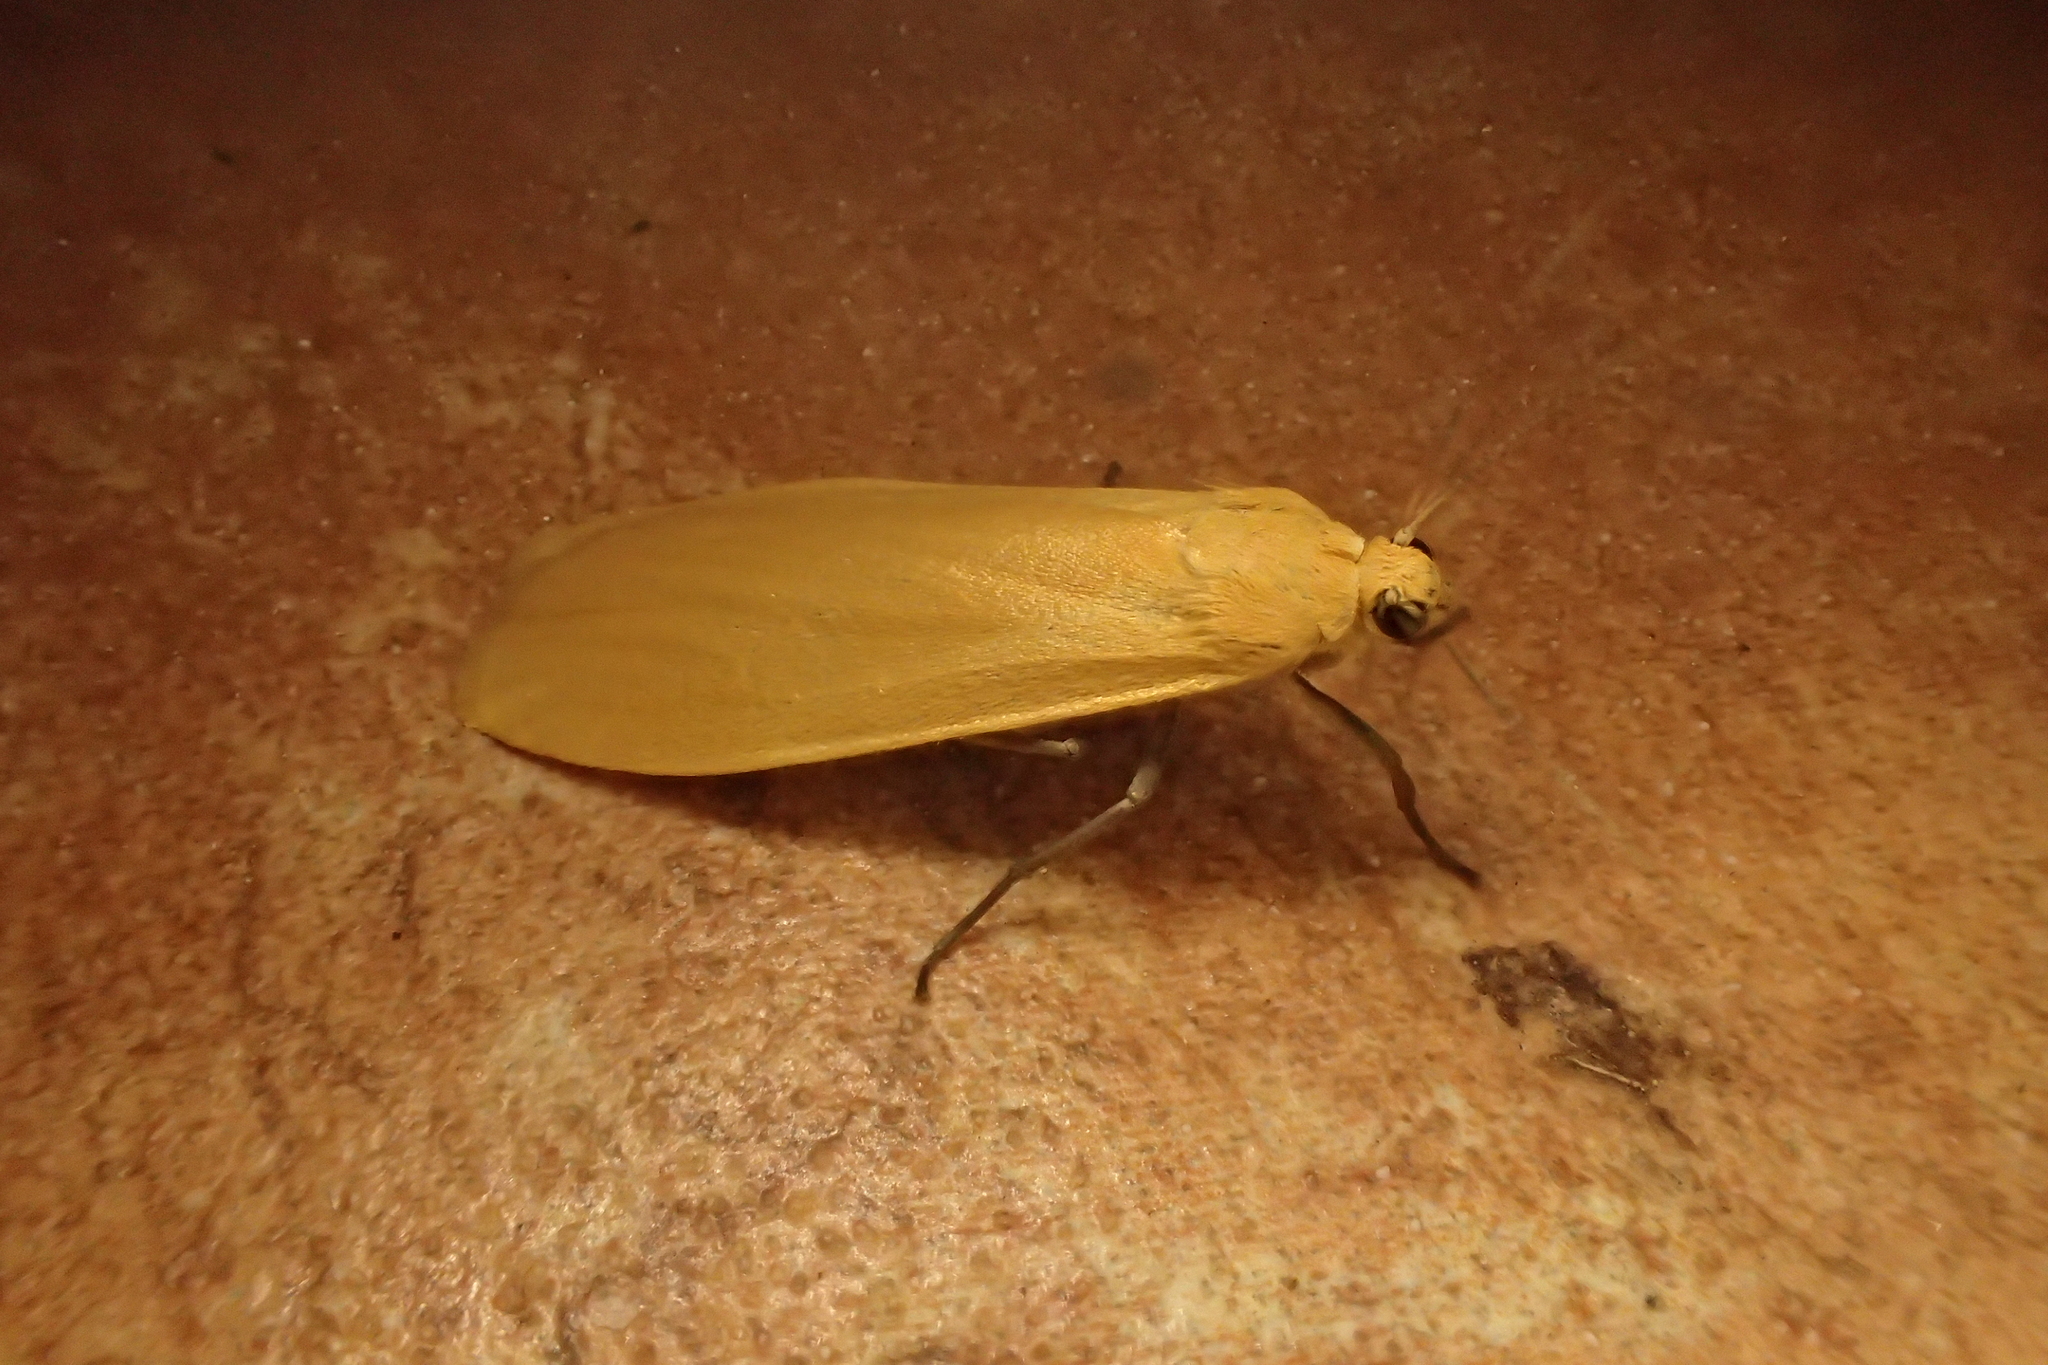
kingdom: Animalia
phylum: Arthropoda
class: Insecta
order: Lepidoptera
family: Erebidae
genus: Wittia
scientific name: Wittia sororcula
